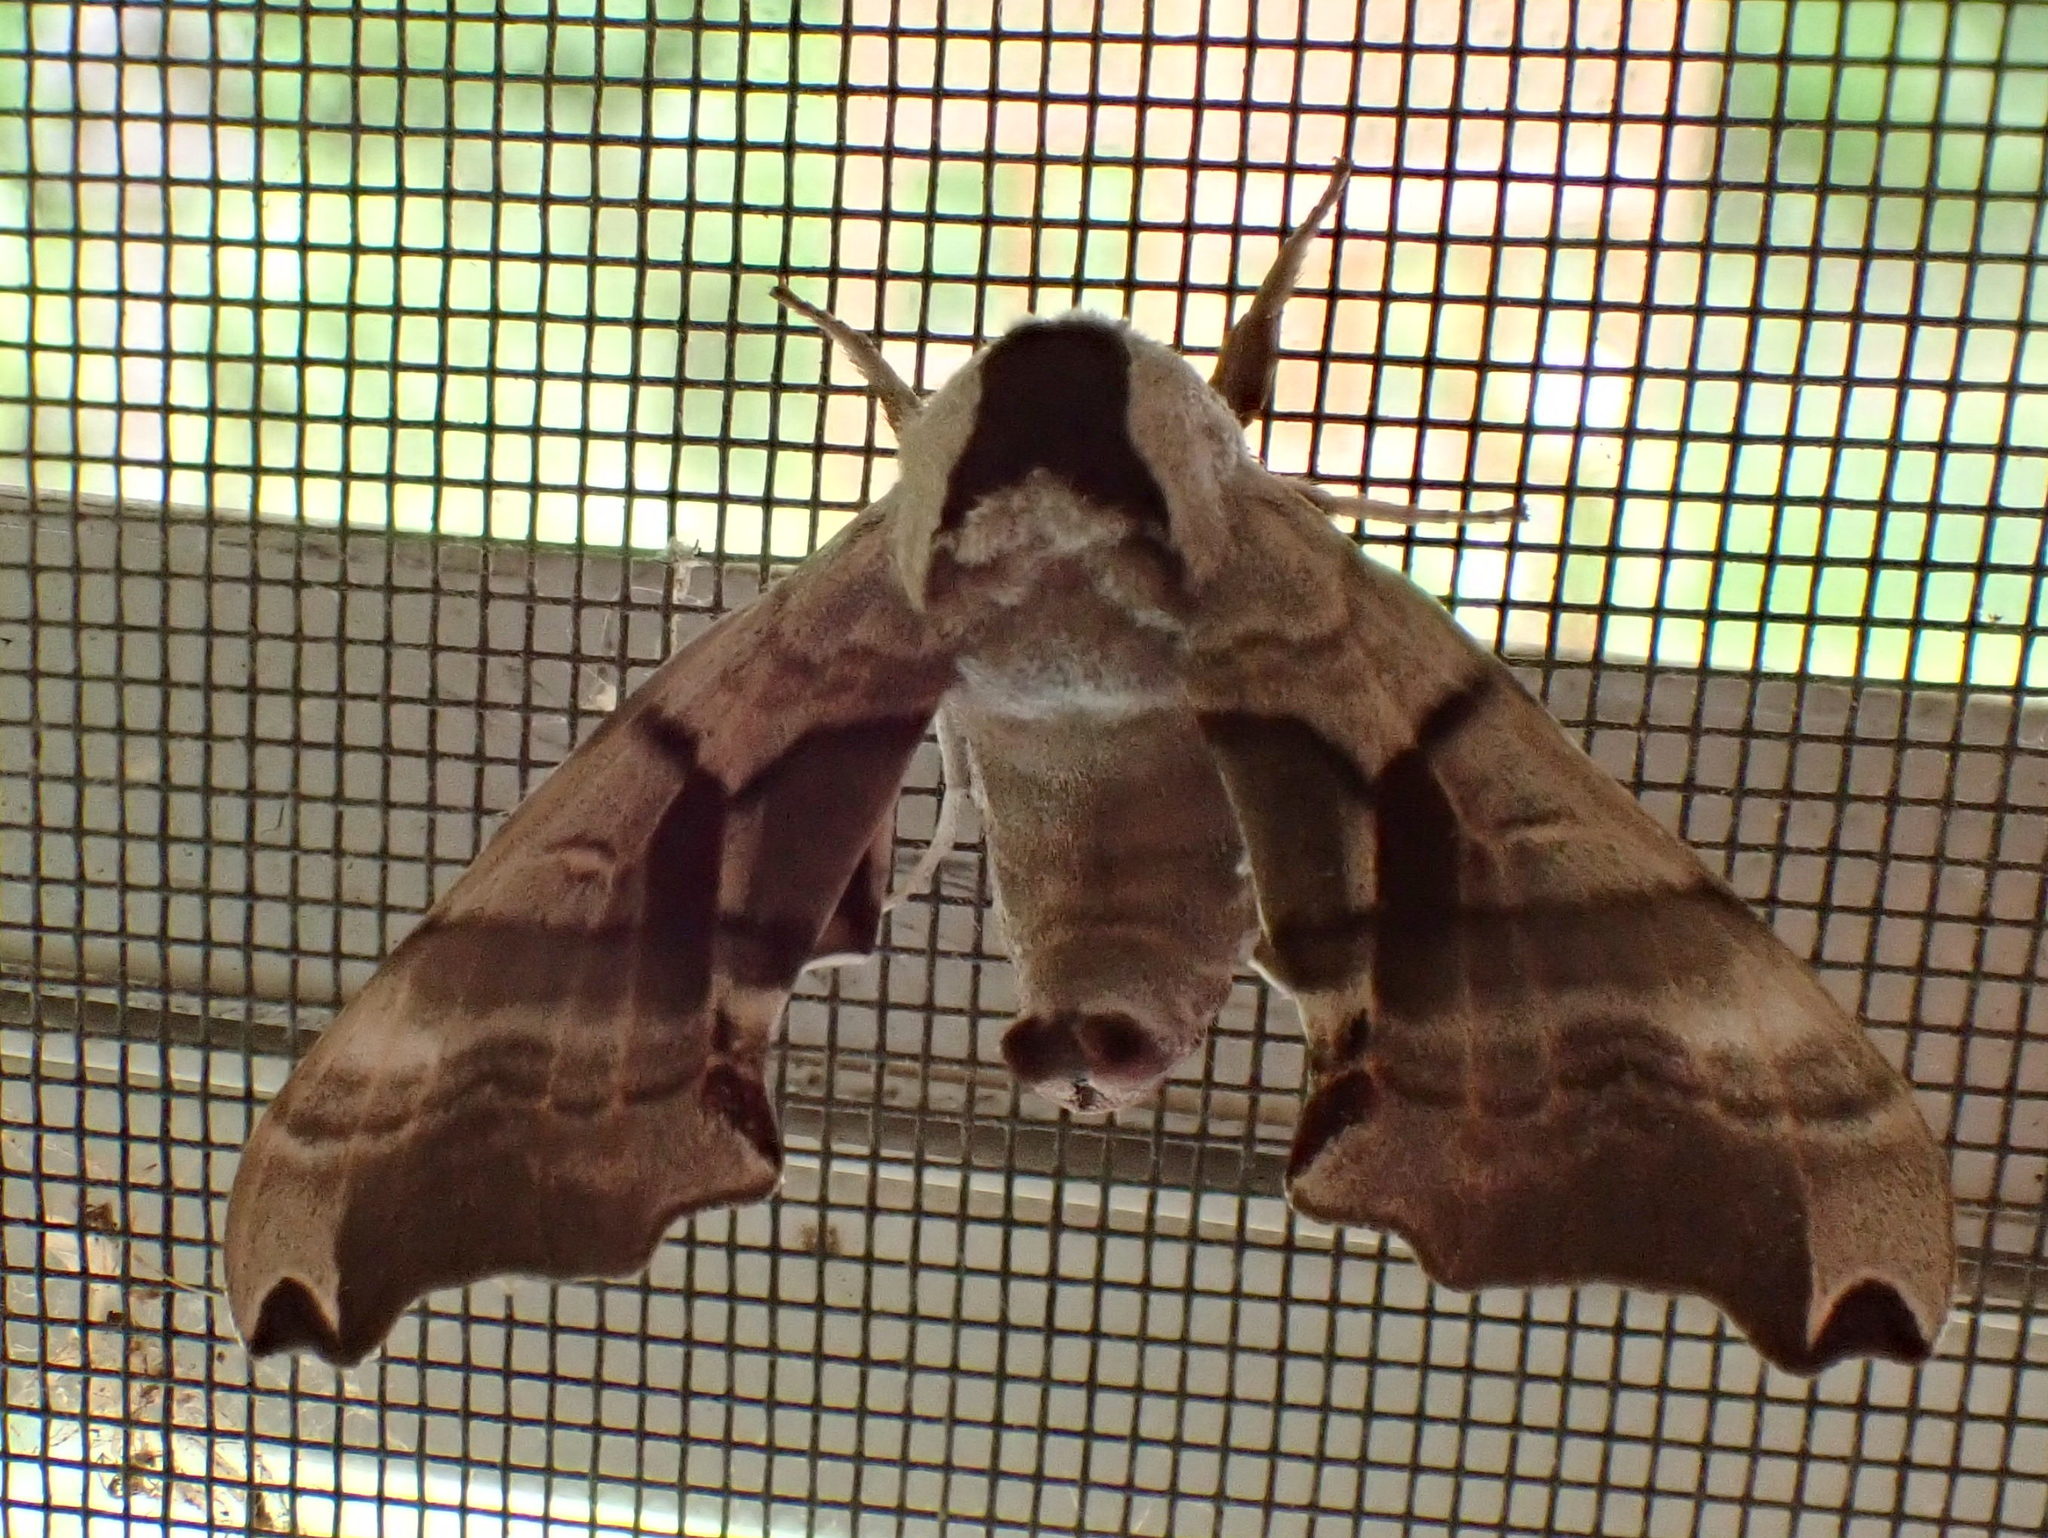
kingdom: Animalia
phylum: Arthropoda
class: Insecta
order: Lepidoptera
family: Sphingidae
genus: Smerinthus
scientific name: Smerinthus jamaicensis
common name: Twin spotted sphinx
